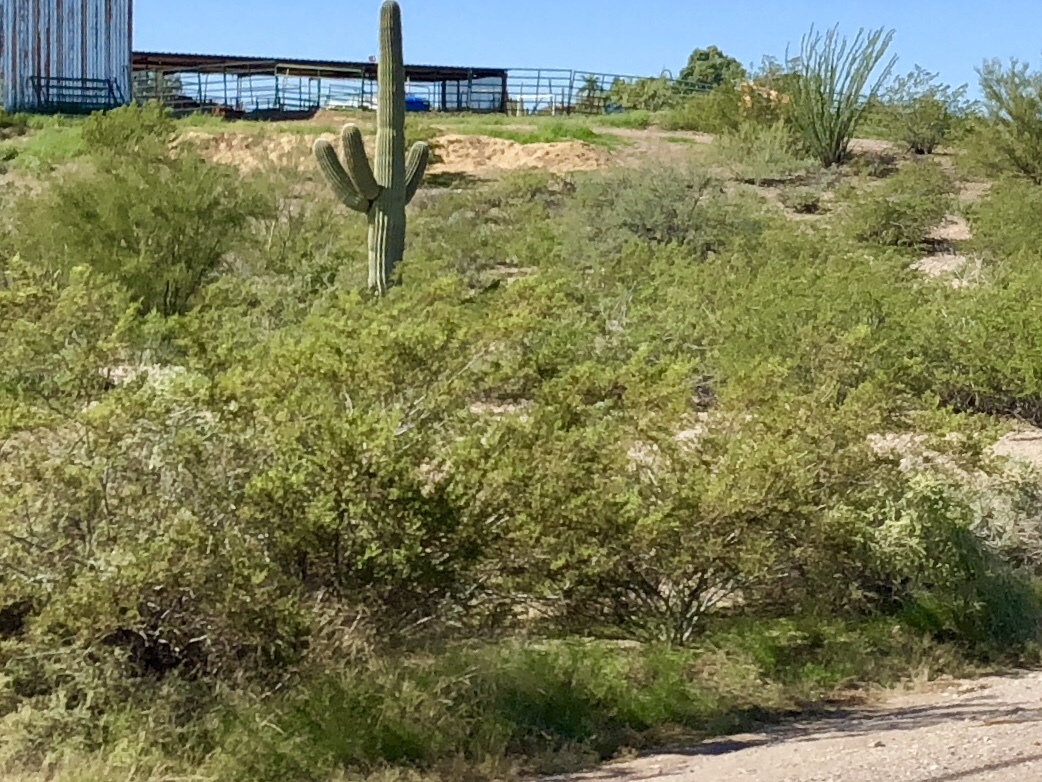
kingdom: Plantae
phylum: Tracheophyta
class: Magnoliopsida
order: Zygophyllales
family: Zygophyllaceae
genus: Larrea
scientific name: Larrea tridentata
